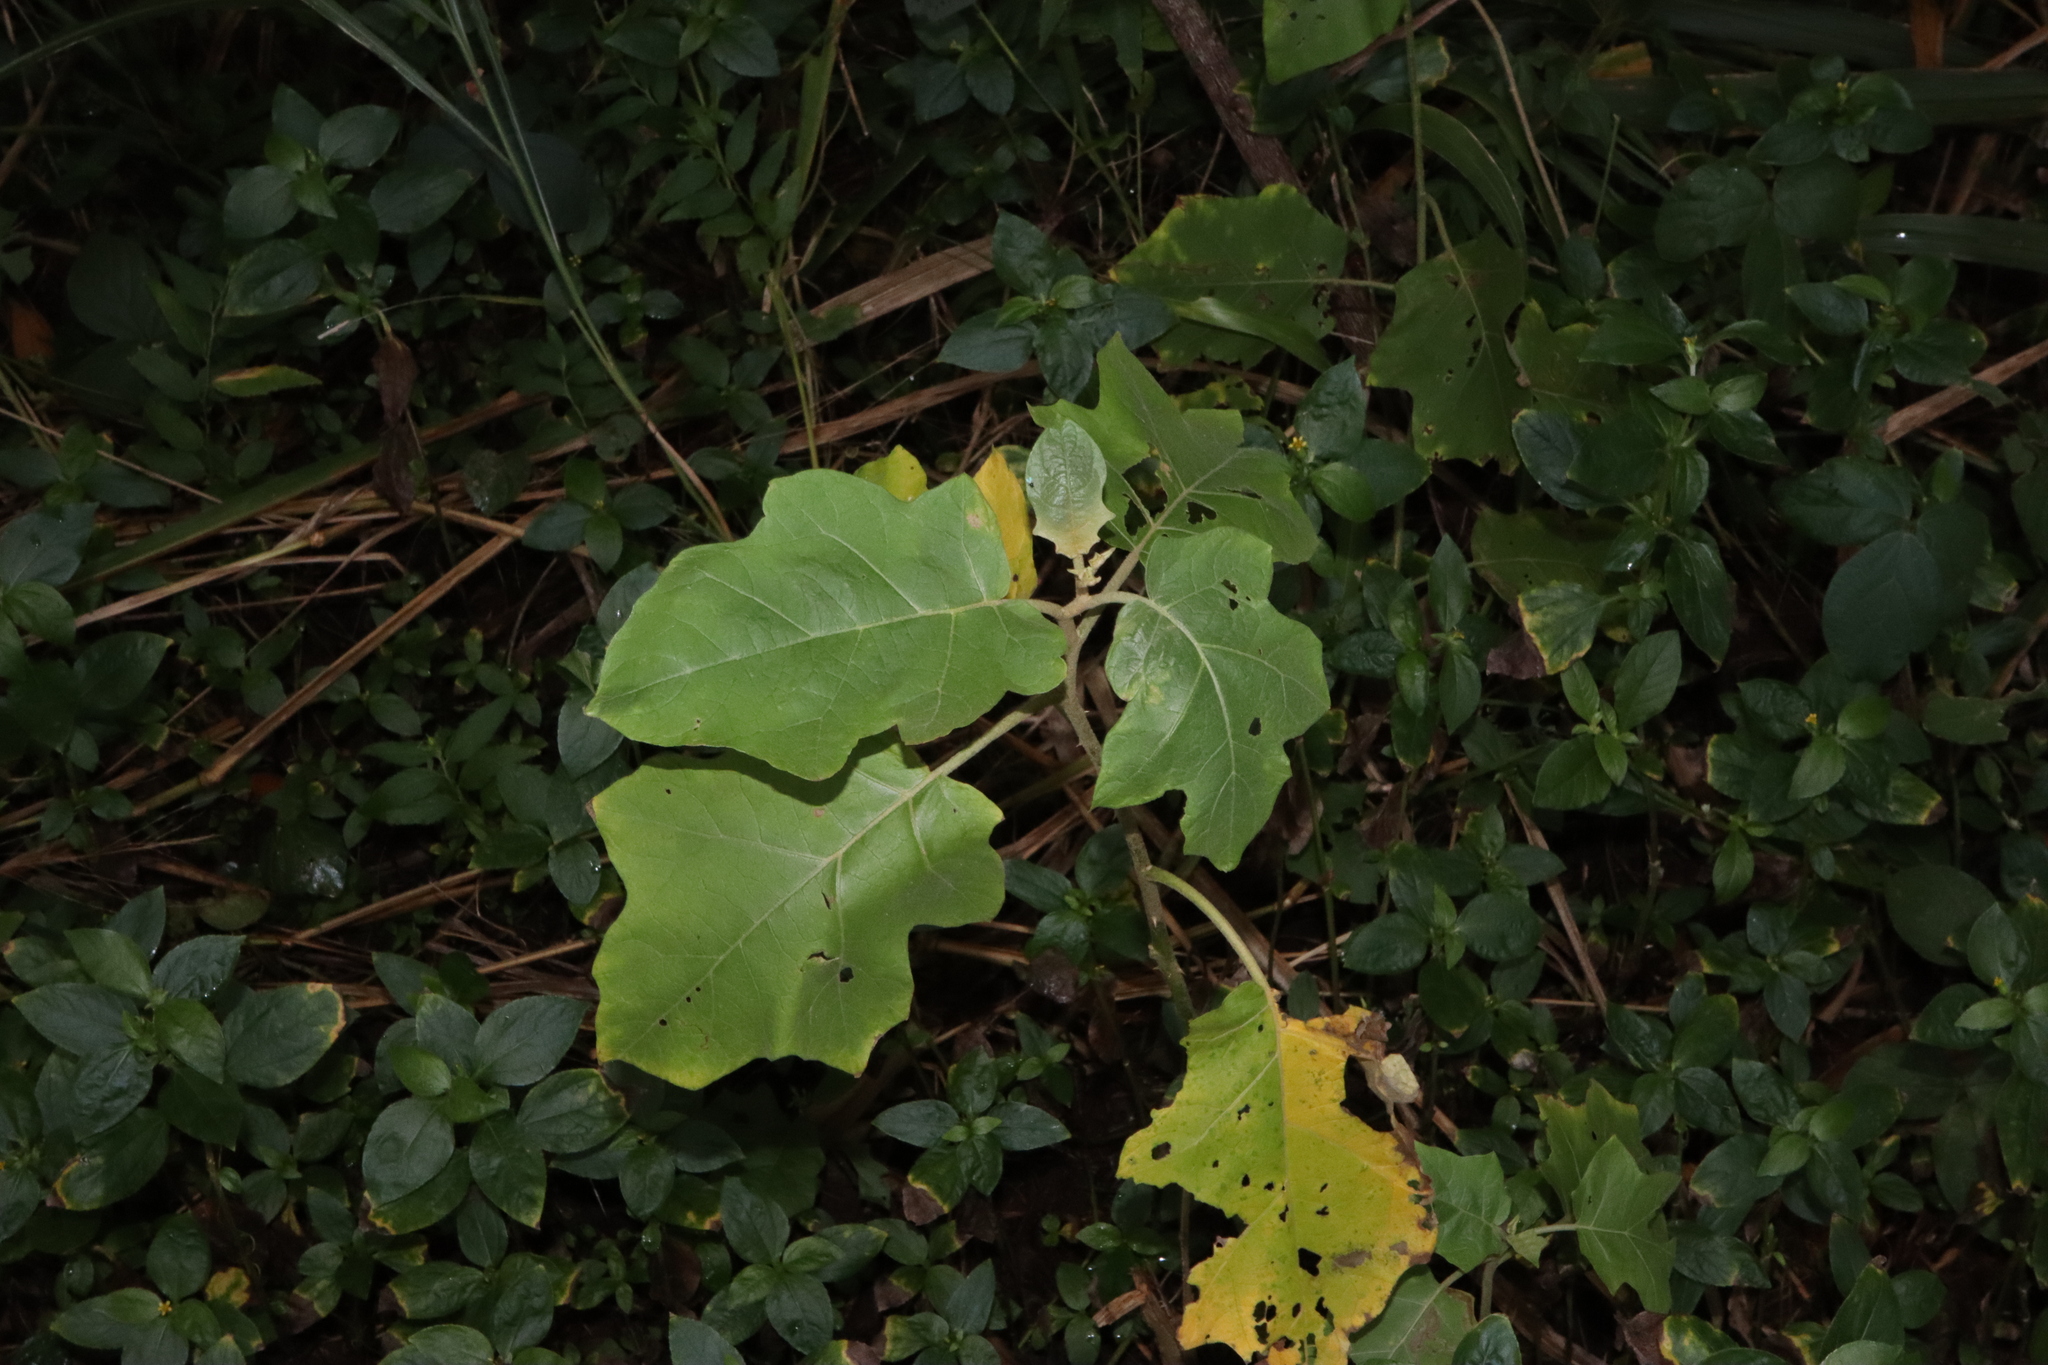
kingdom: Plantae
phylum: Tracheophyta
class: Magnoliopsida
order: Solanales
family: Solanaceae
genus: Solanum
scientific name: Solanum torvum
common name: Turkey berry
